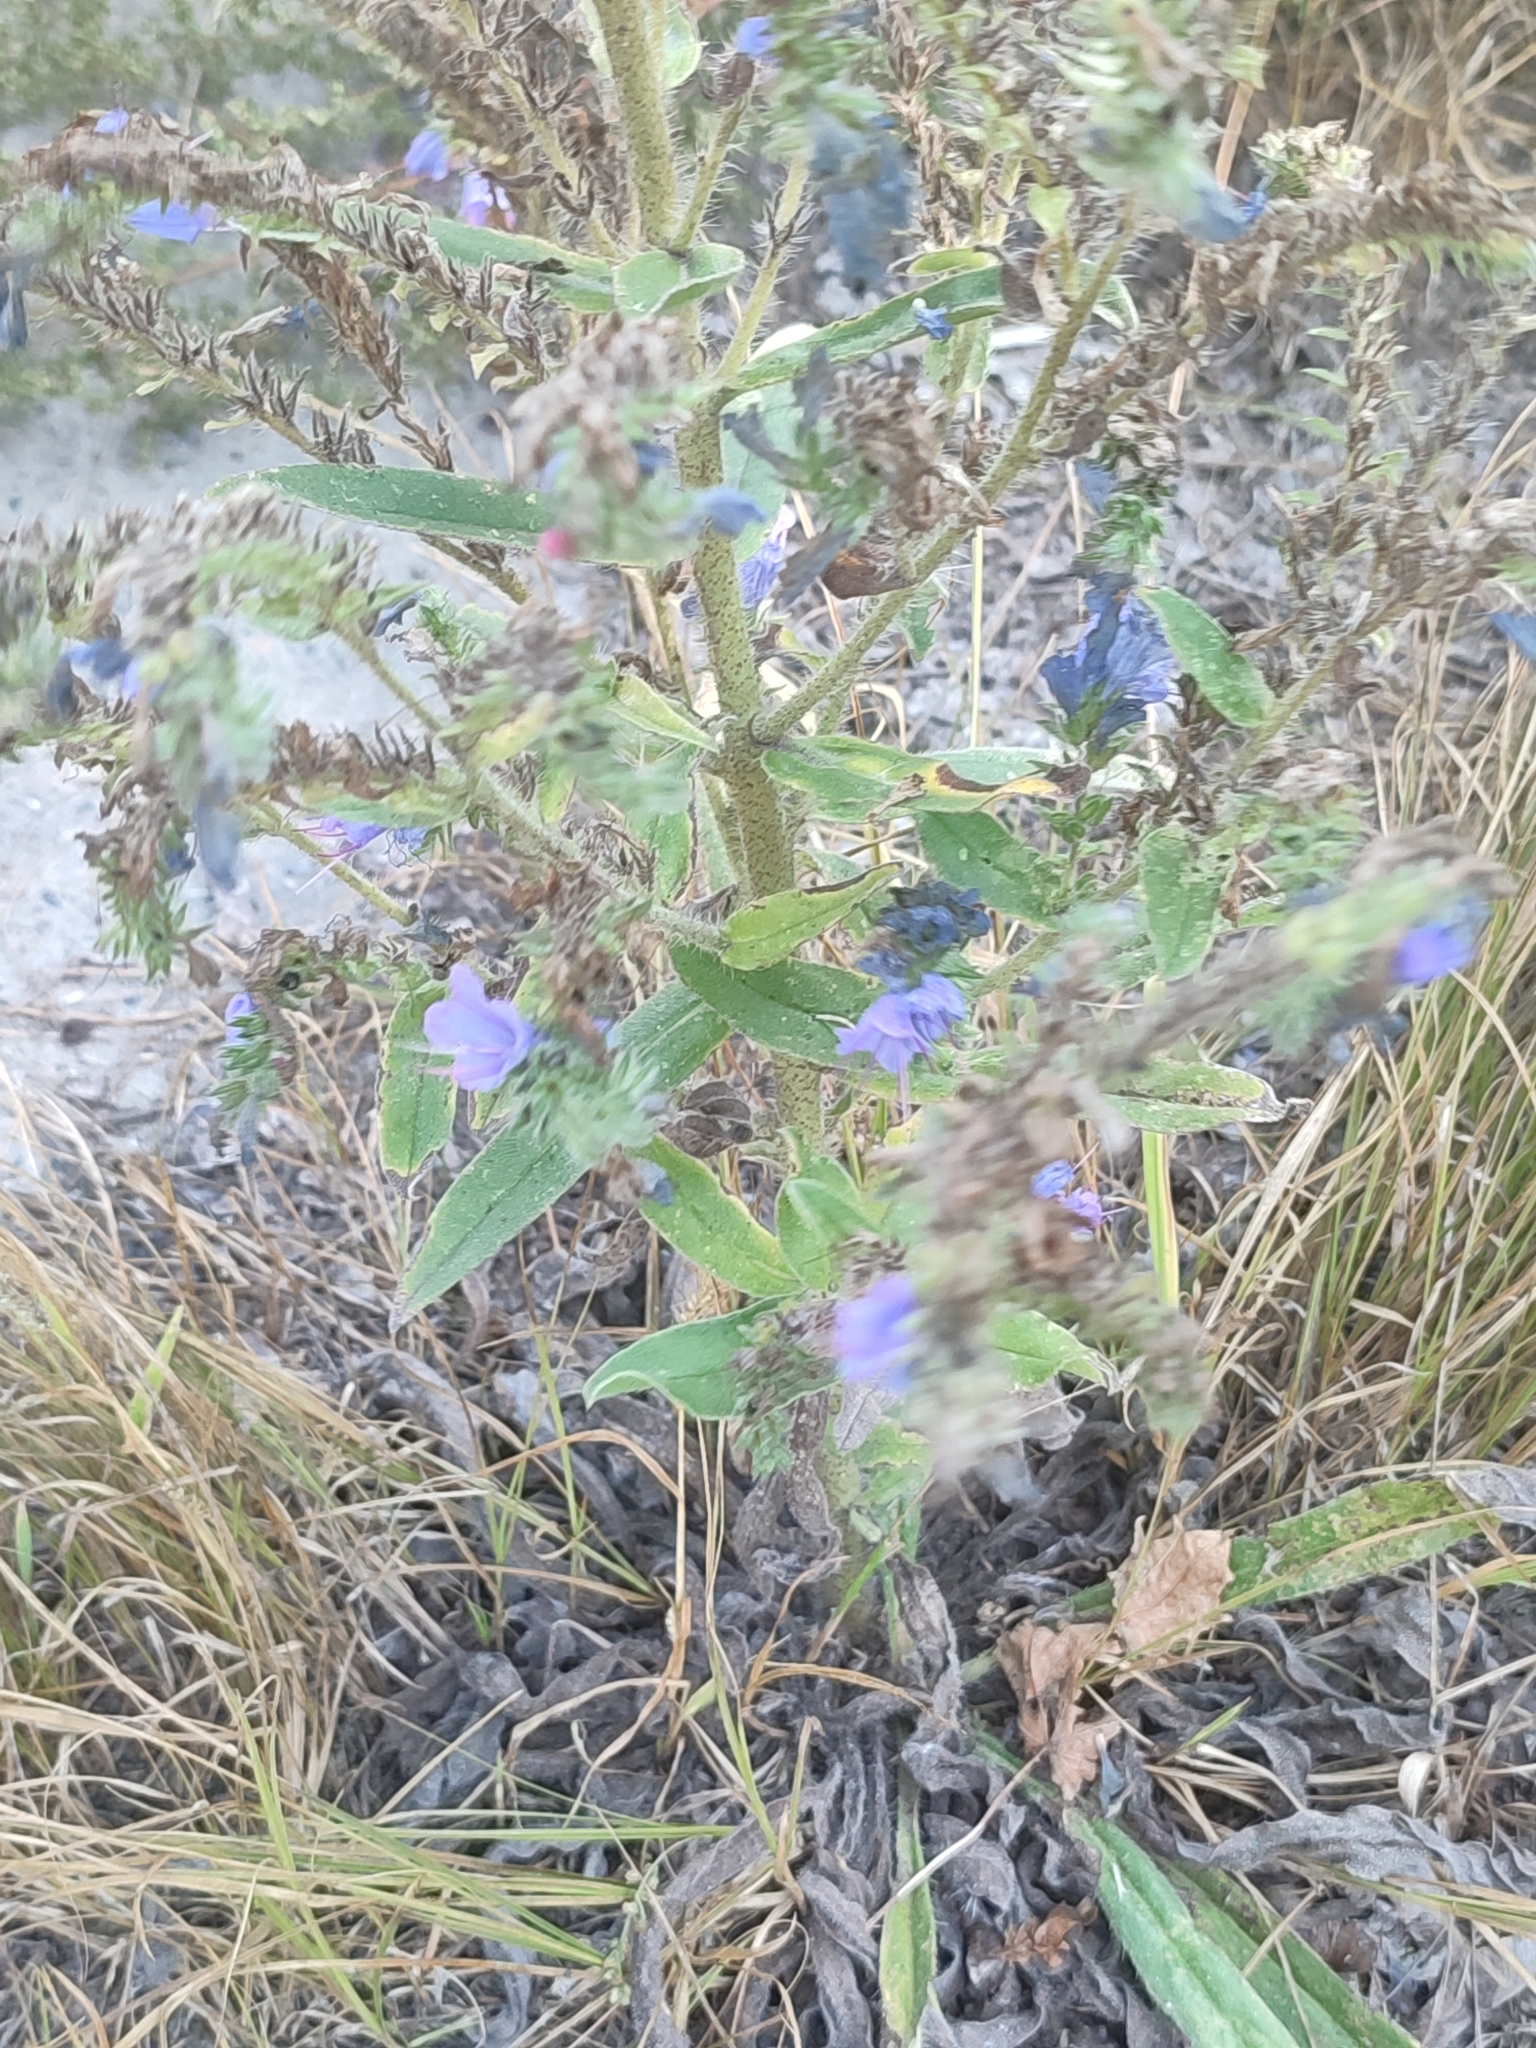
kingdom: Plantae
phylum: Tracheophyta
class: Magnoliopsida
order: Boraginales
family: Boraginaceae
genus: Echium
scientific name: Echium vulgare
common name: Common viper's bugloss
